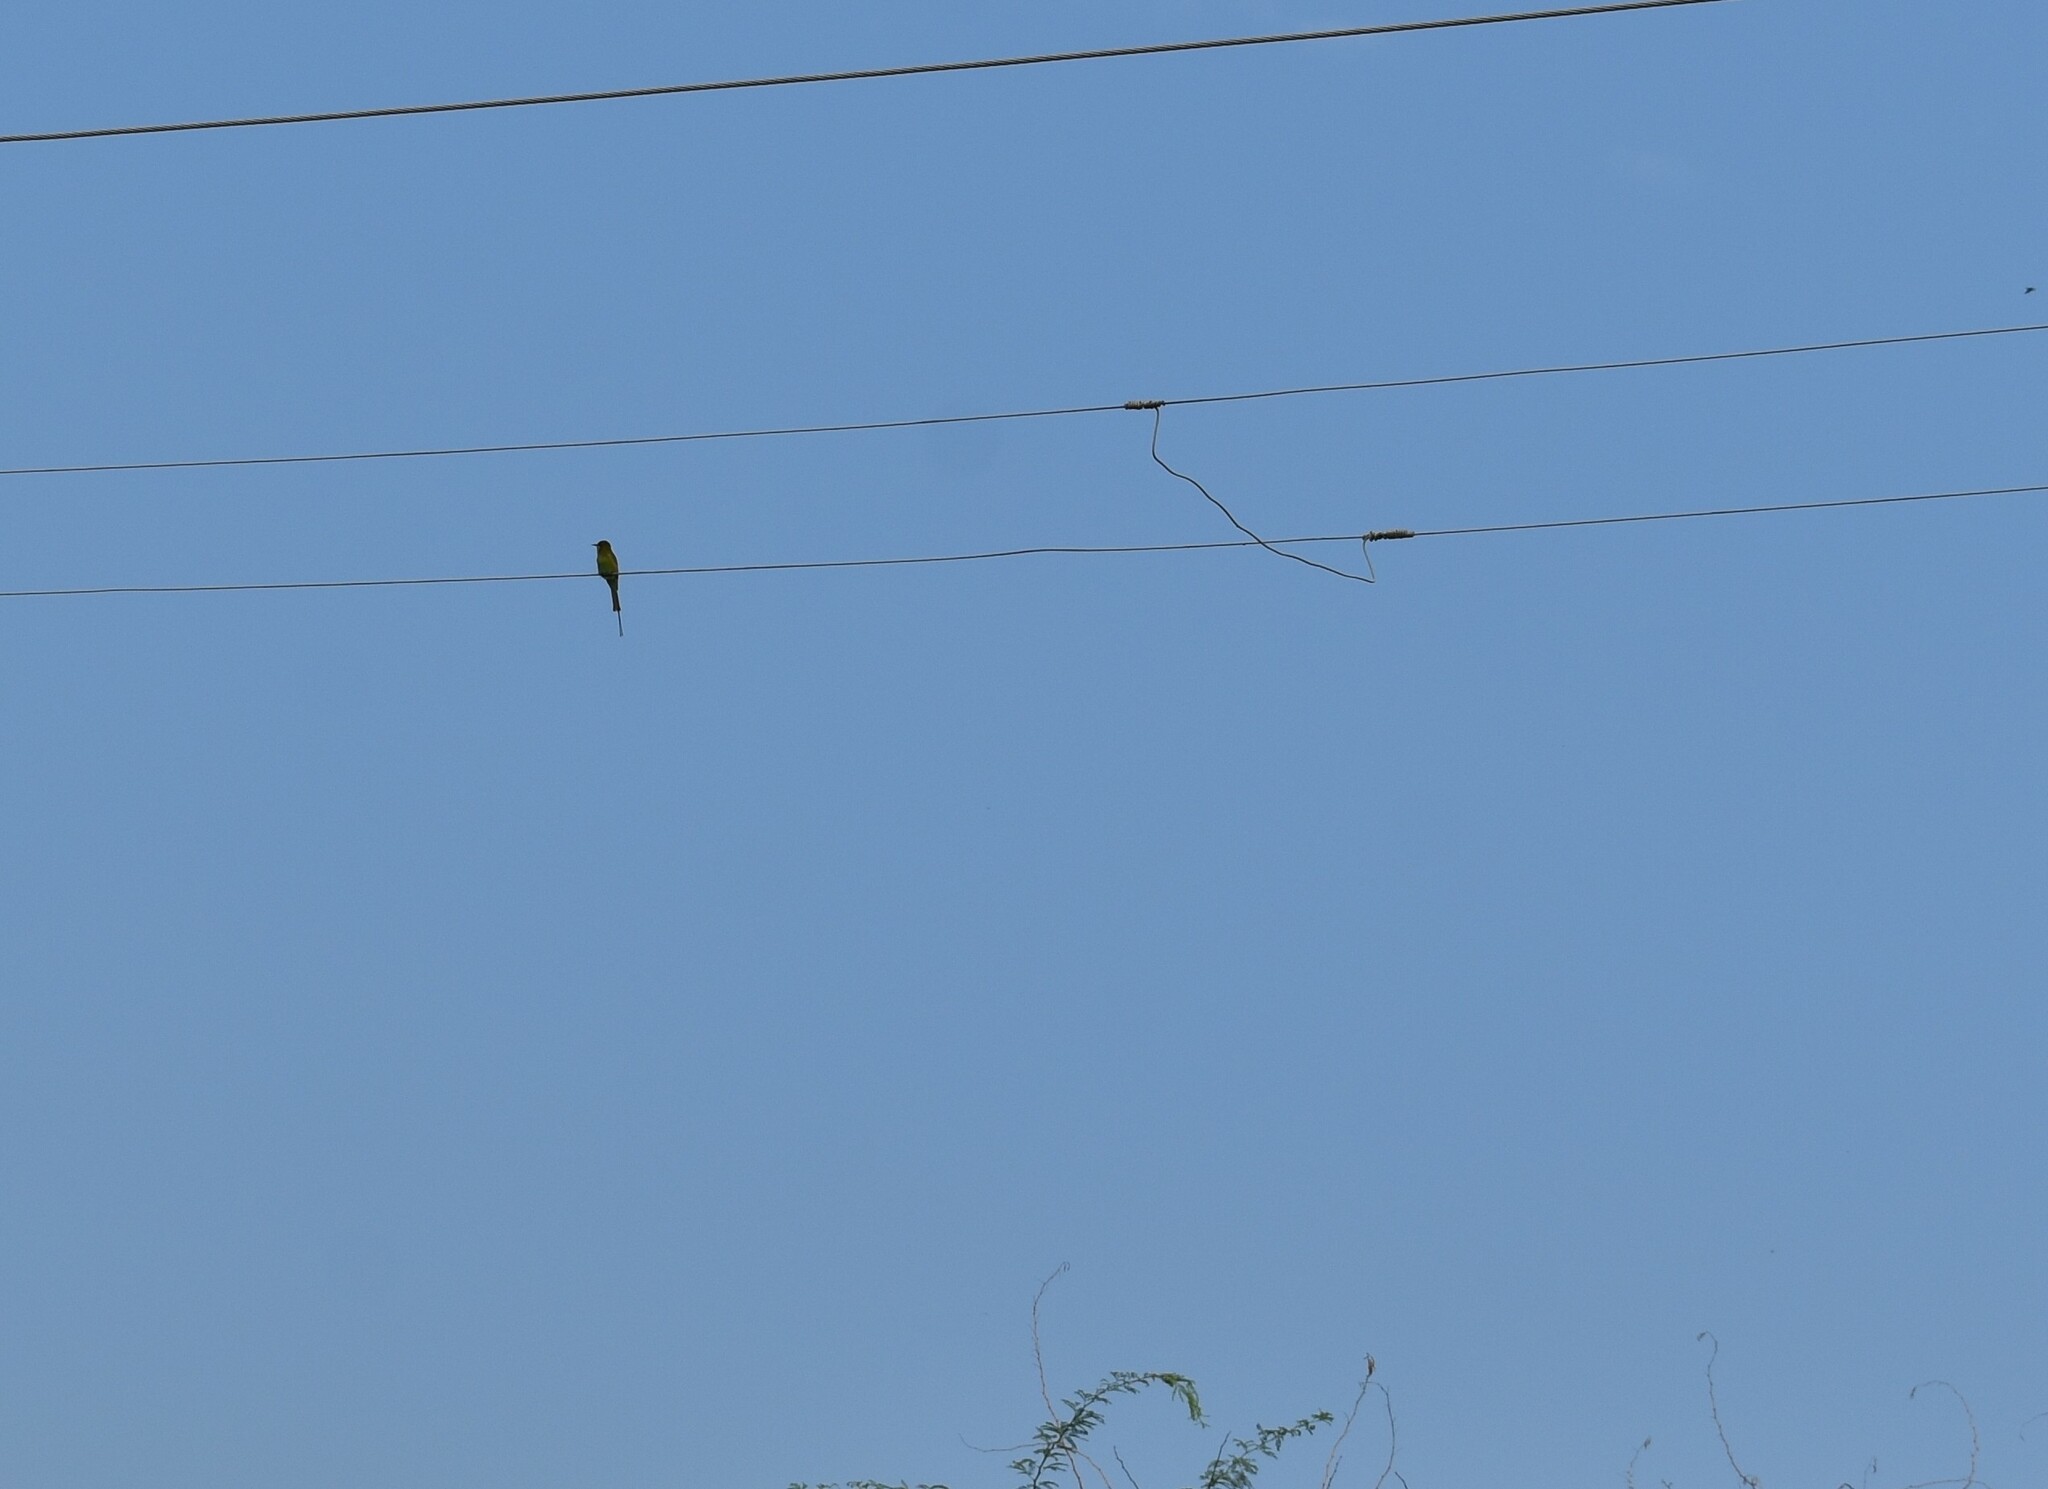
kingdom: Animalia
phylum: Chordata
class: Aves
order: Coraciiformes
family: Meropidae
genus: Merops
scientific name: Merops orientalis
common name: Green bee-eater
